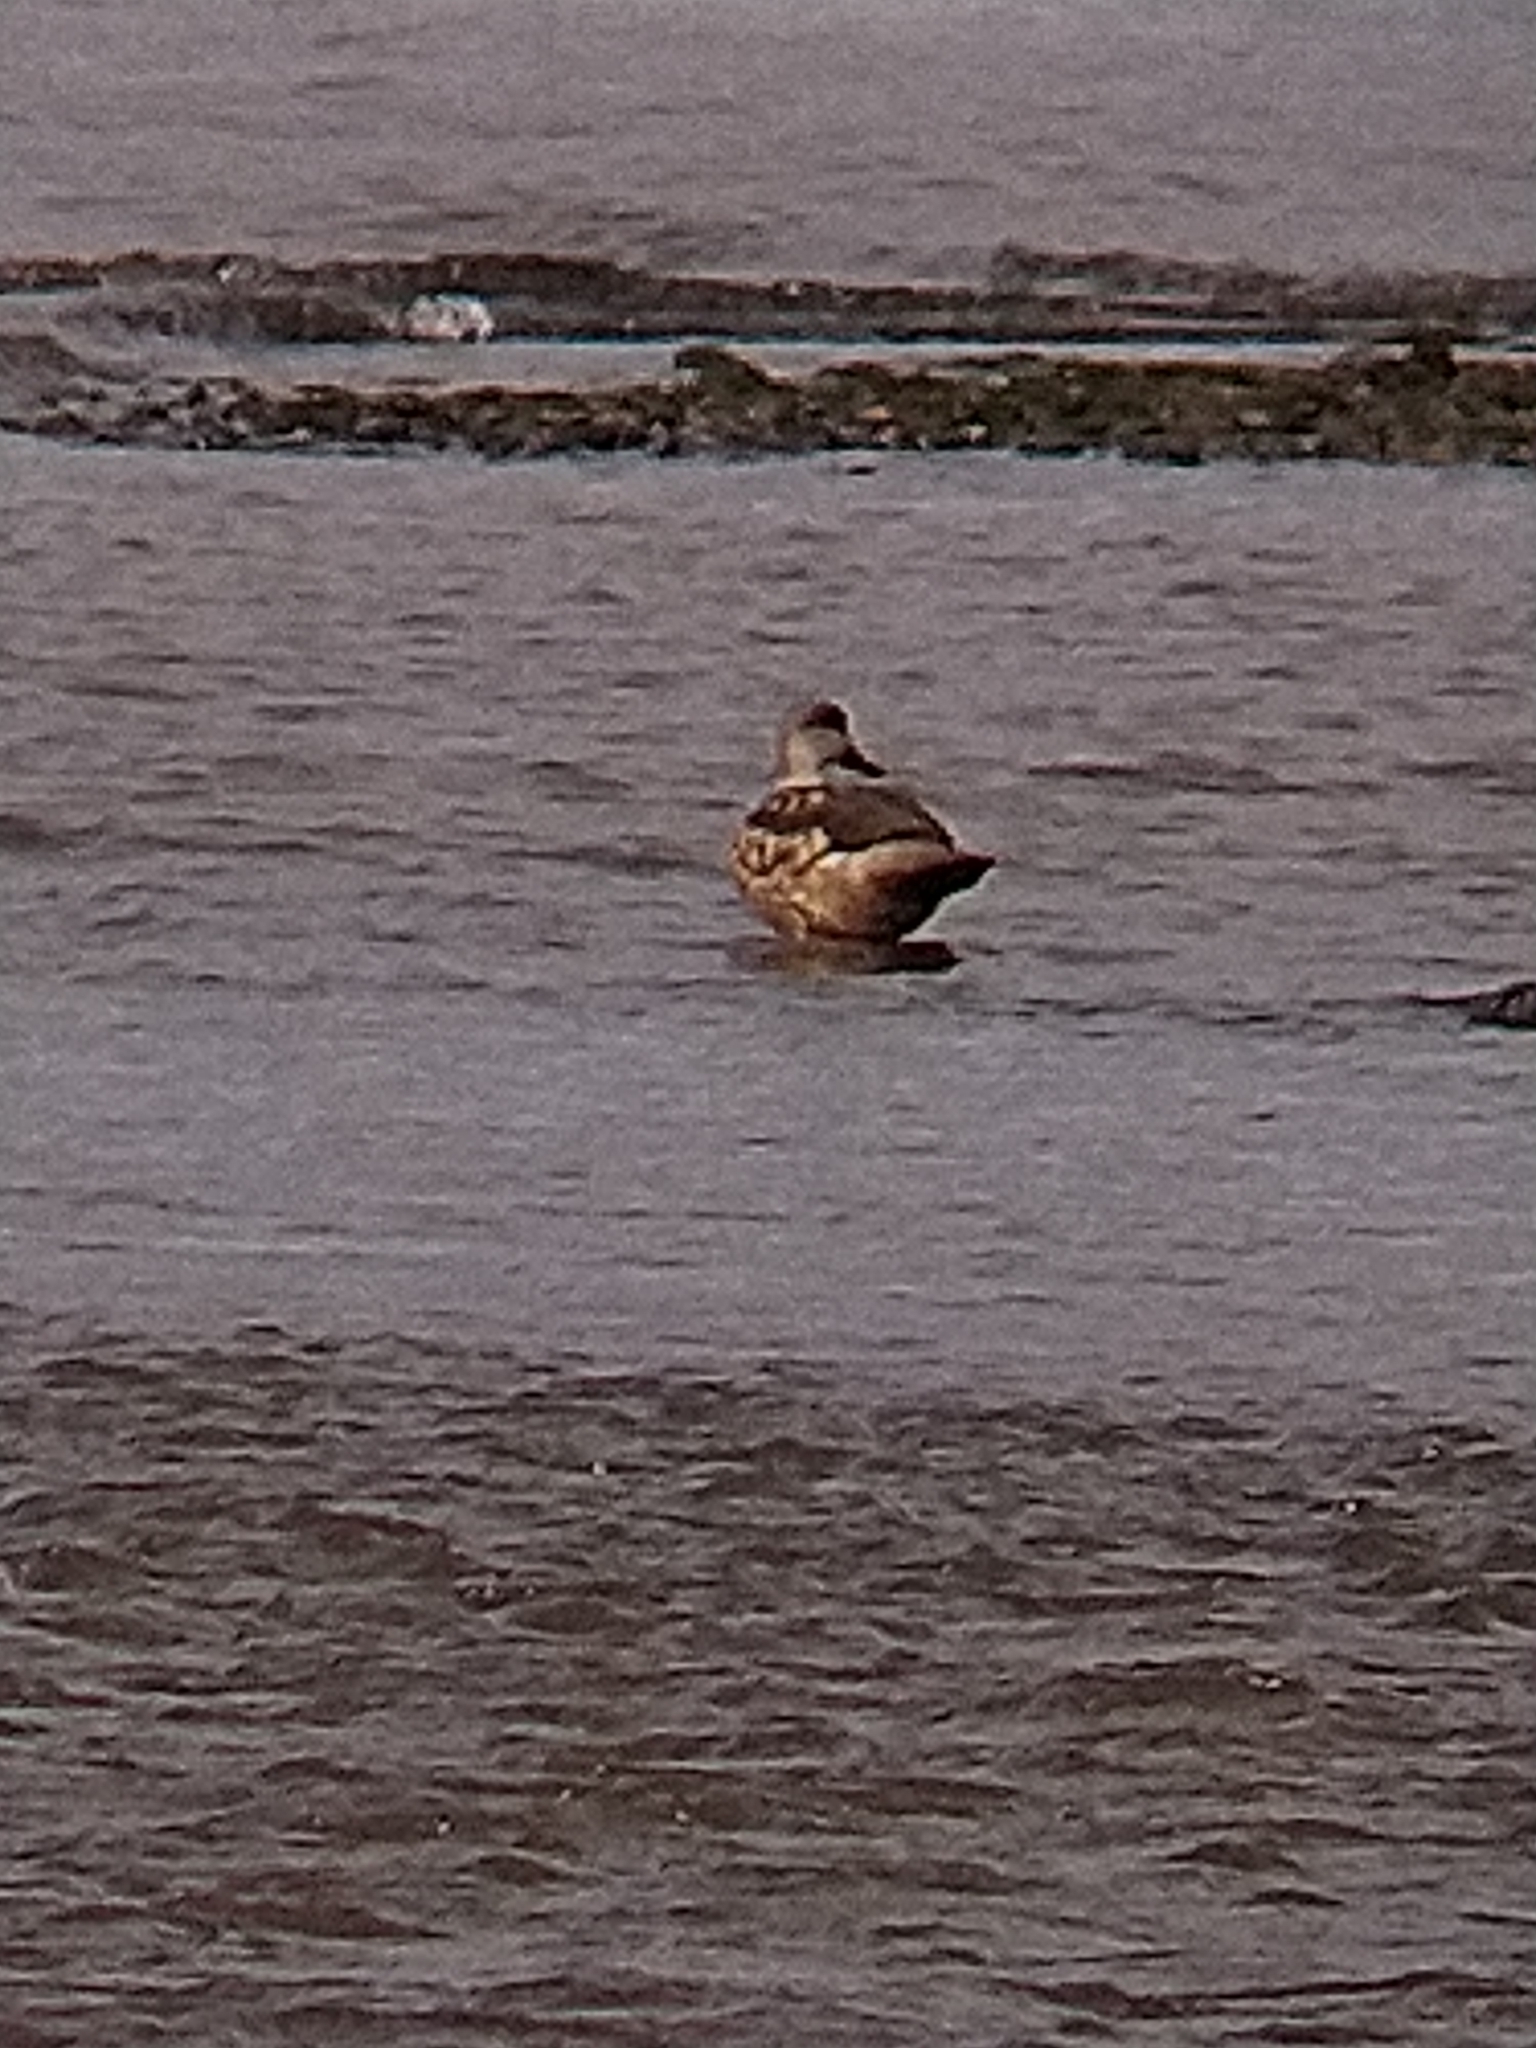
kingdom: Animalia
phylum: Chordata
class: Aves
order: Anseriformes
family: Anatidae
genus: Lophonetta
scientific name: Lophonetta specularioides
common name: Crested duck
